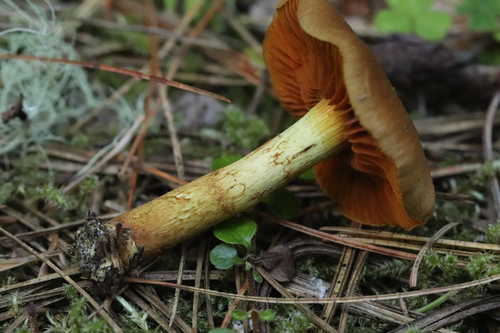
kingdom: Fungi
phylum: Basidiomycota
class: Agaricomycetes
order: Agaricales
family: Cortinariaceae
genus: Cortinarius
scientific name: Cortinarius semisanguineus
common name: Surprise webcap
